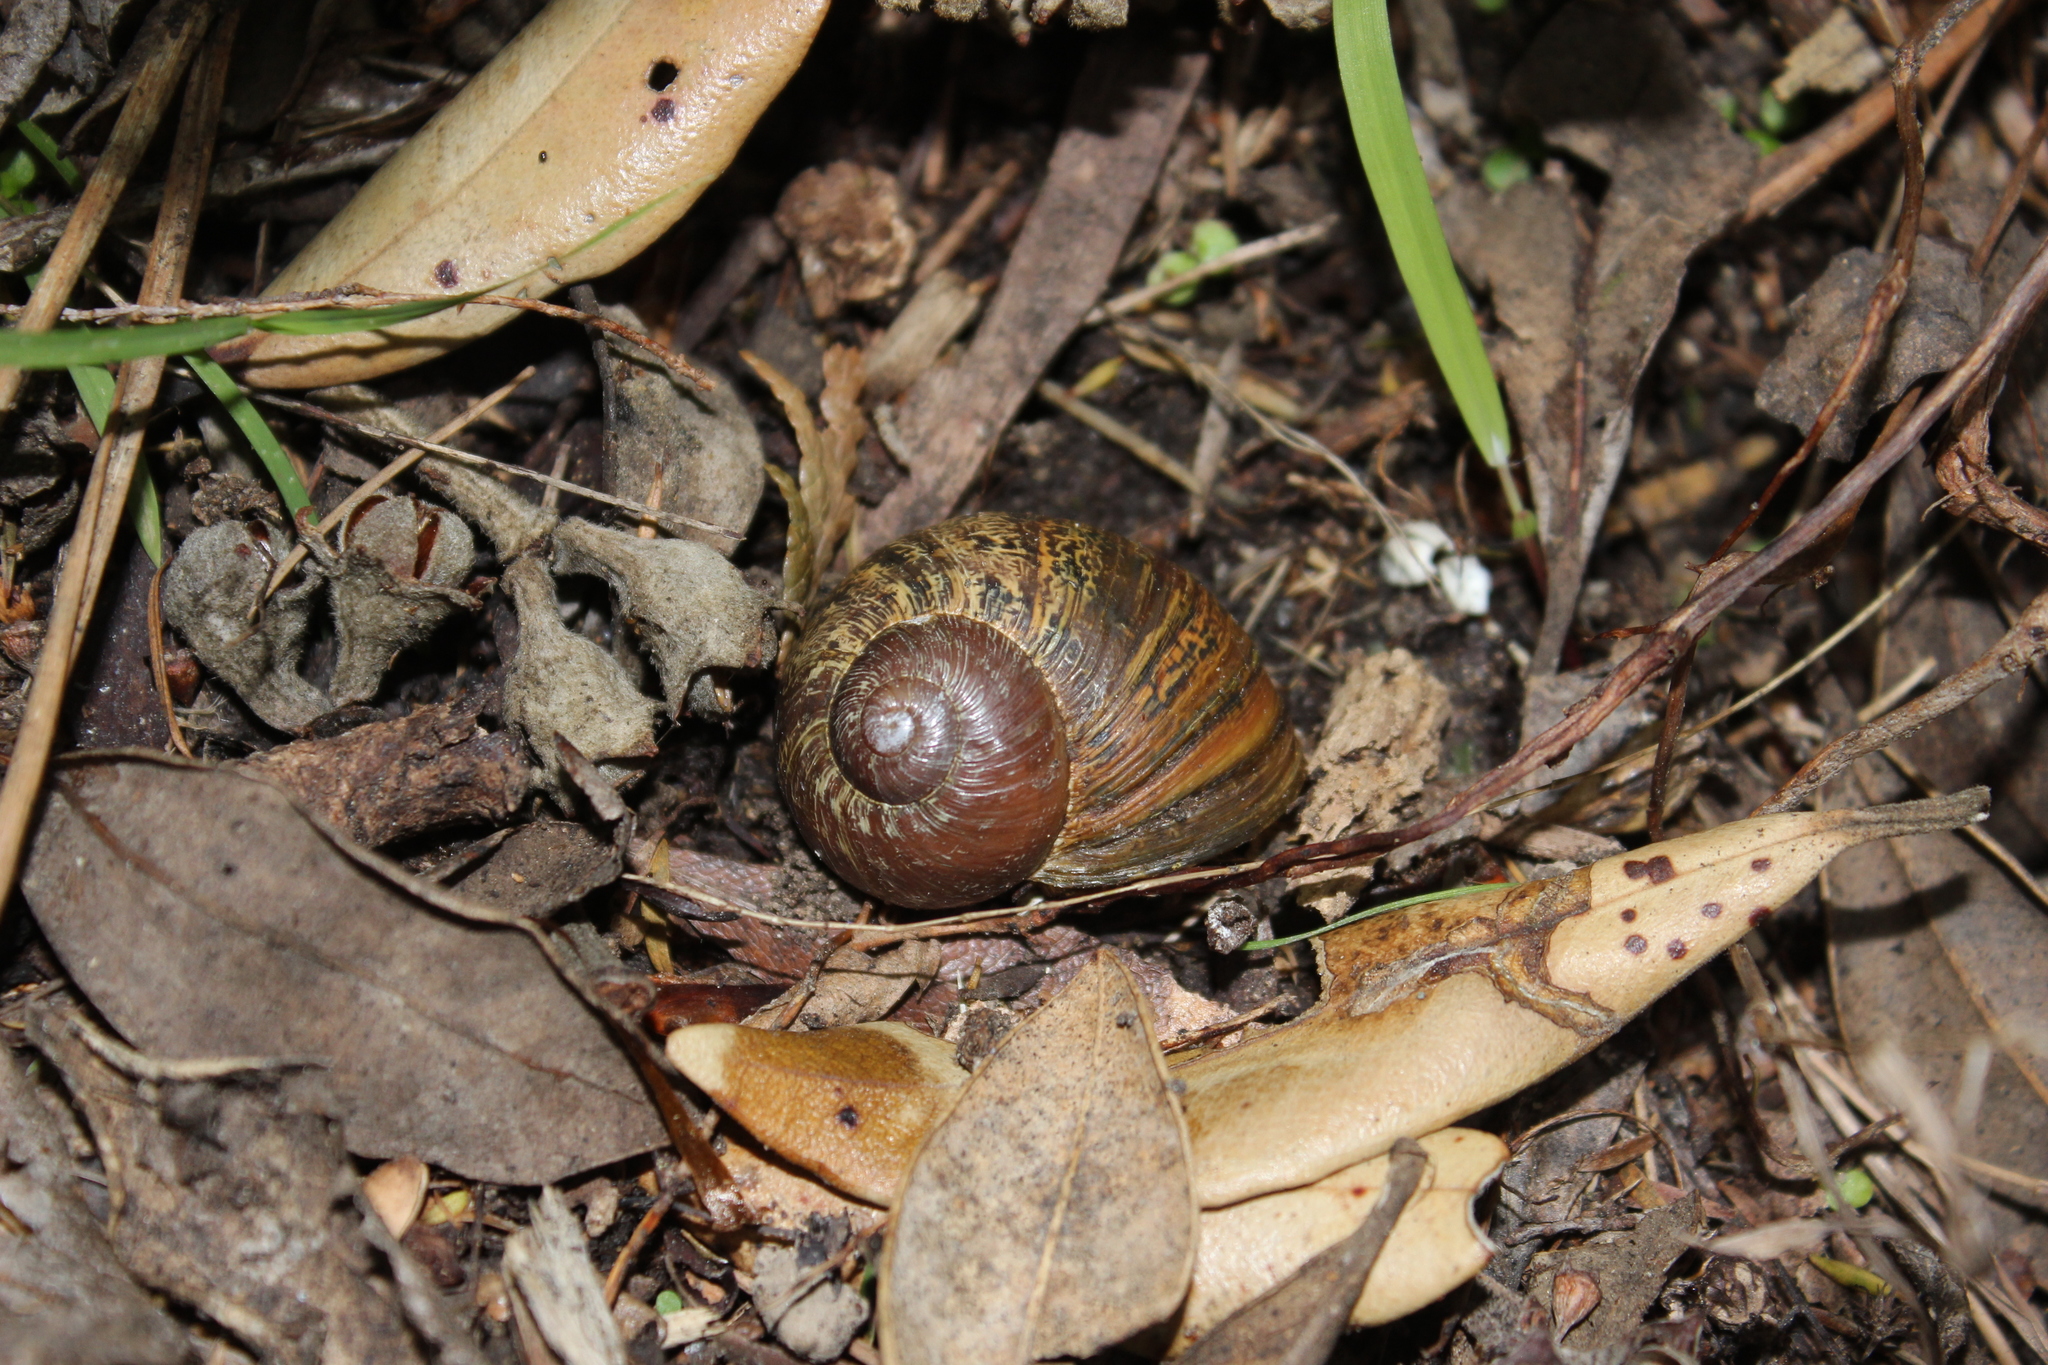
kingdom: Animalia
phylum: Mollusca
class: Gastropoda
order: Stylommatophora
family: Helicidae
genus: Cornu
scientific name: Cornu aspersum
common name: Brown garden snail
